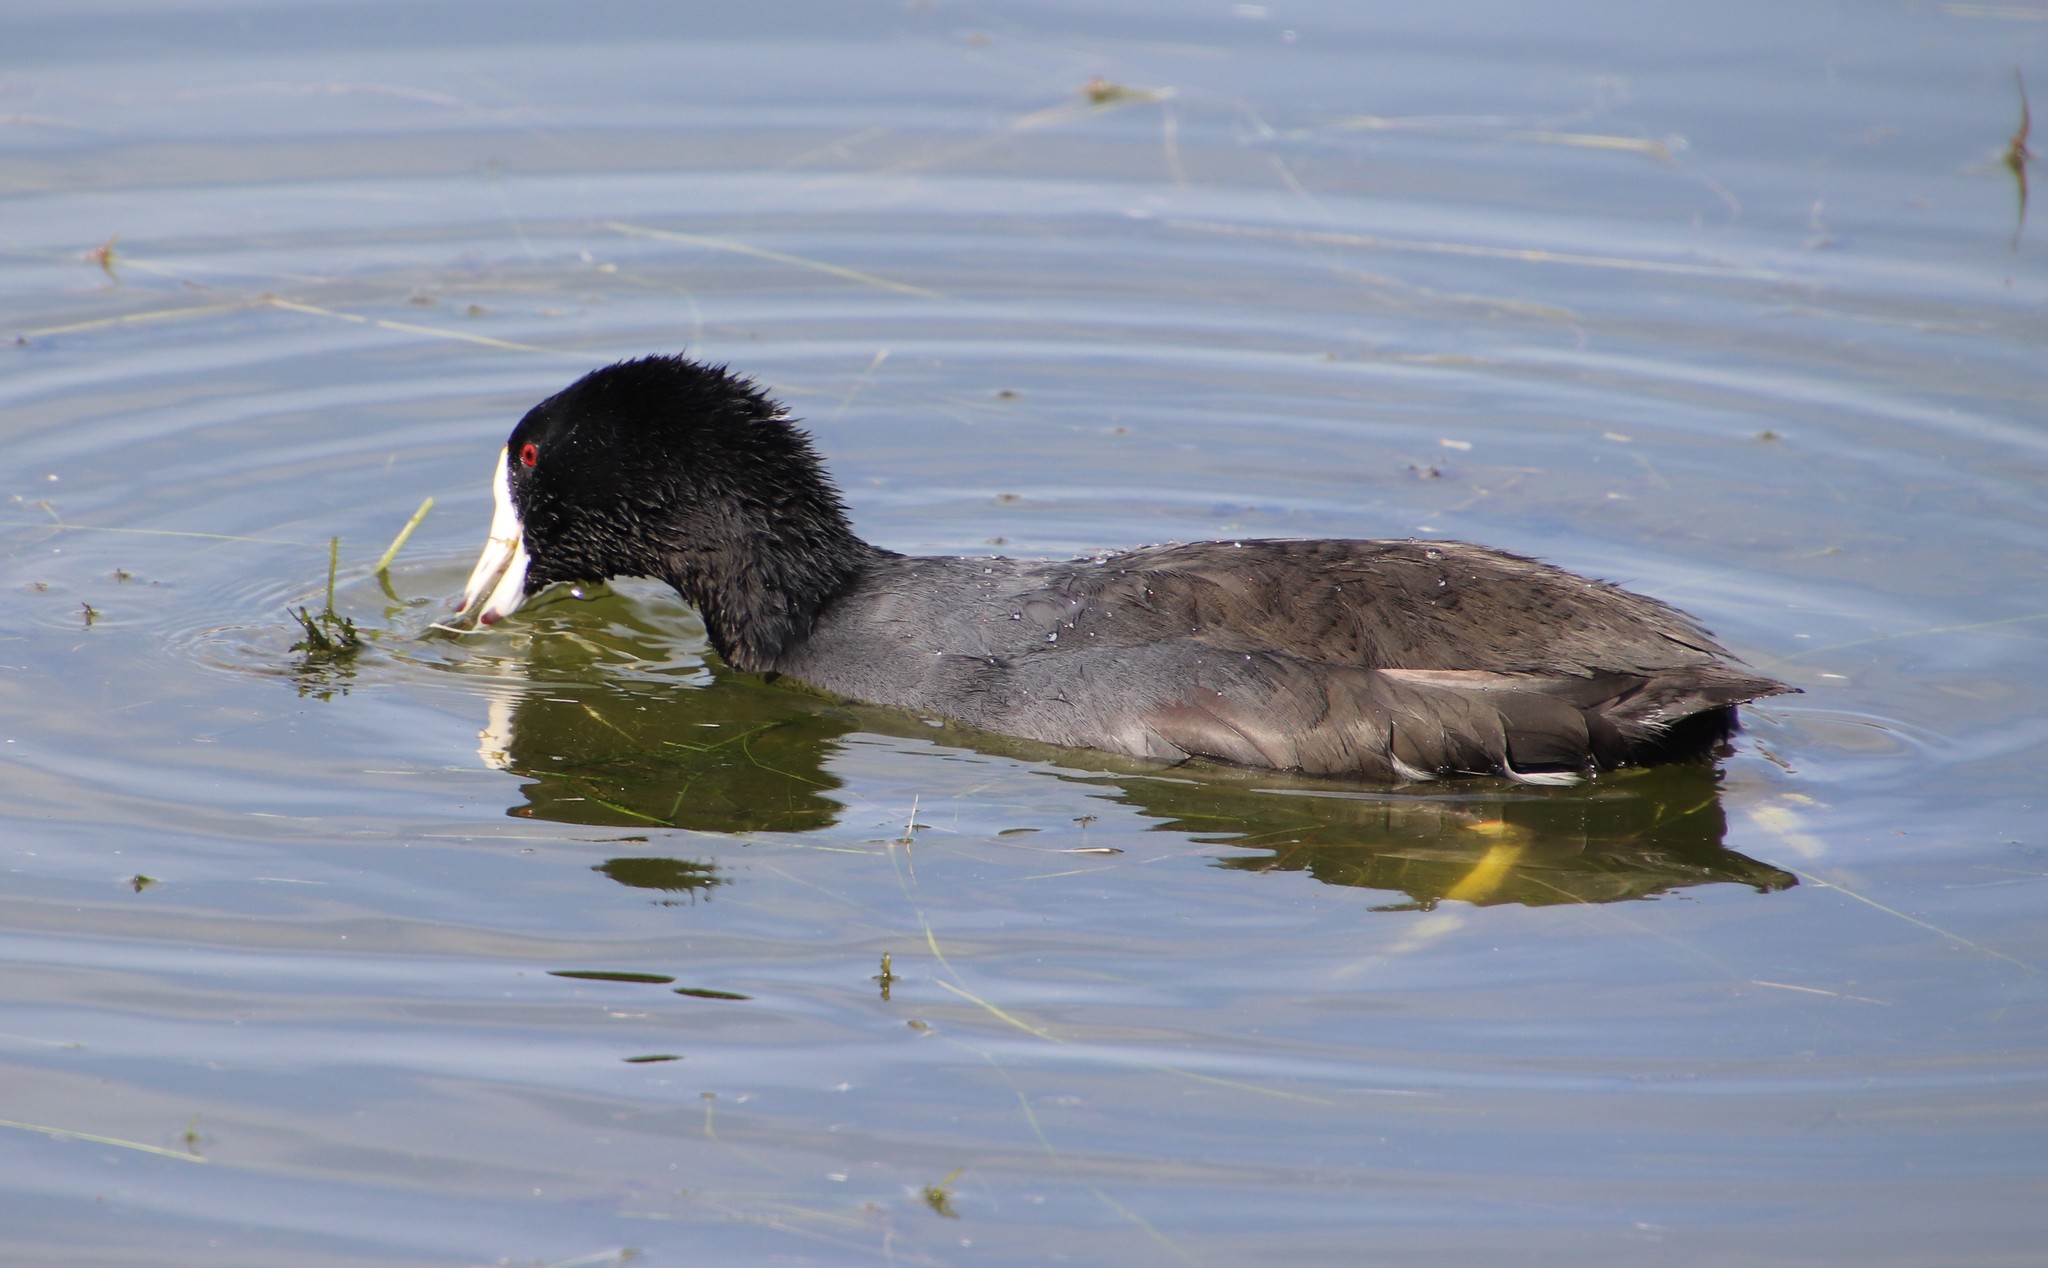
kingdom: Animalia
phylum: Chordata
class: Aves
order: Gruiformes
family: Rallidae
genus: Fulica
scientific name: Fulica americana
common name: American coot
